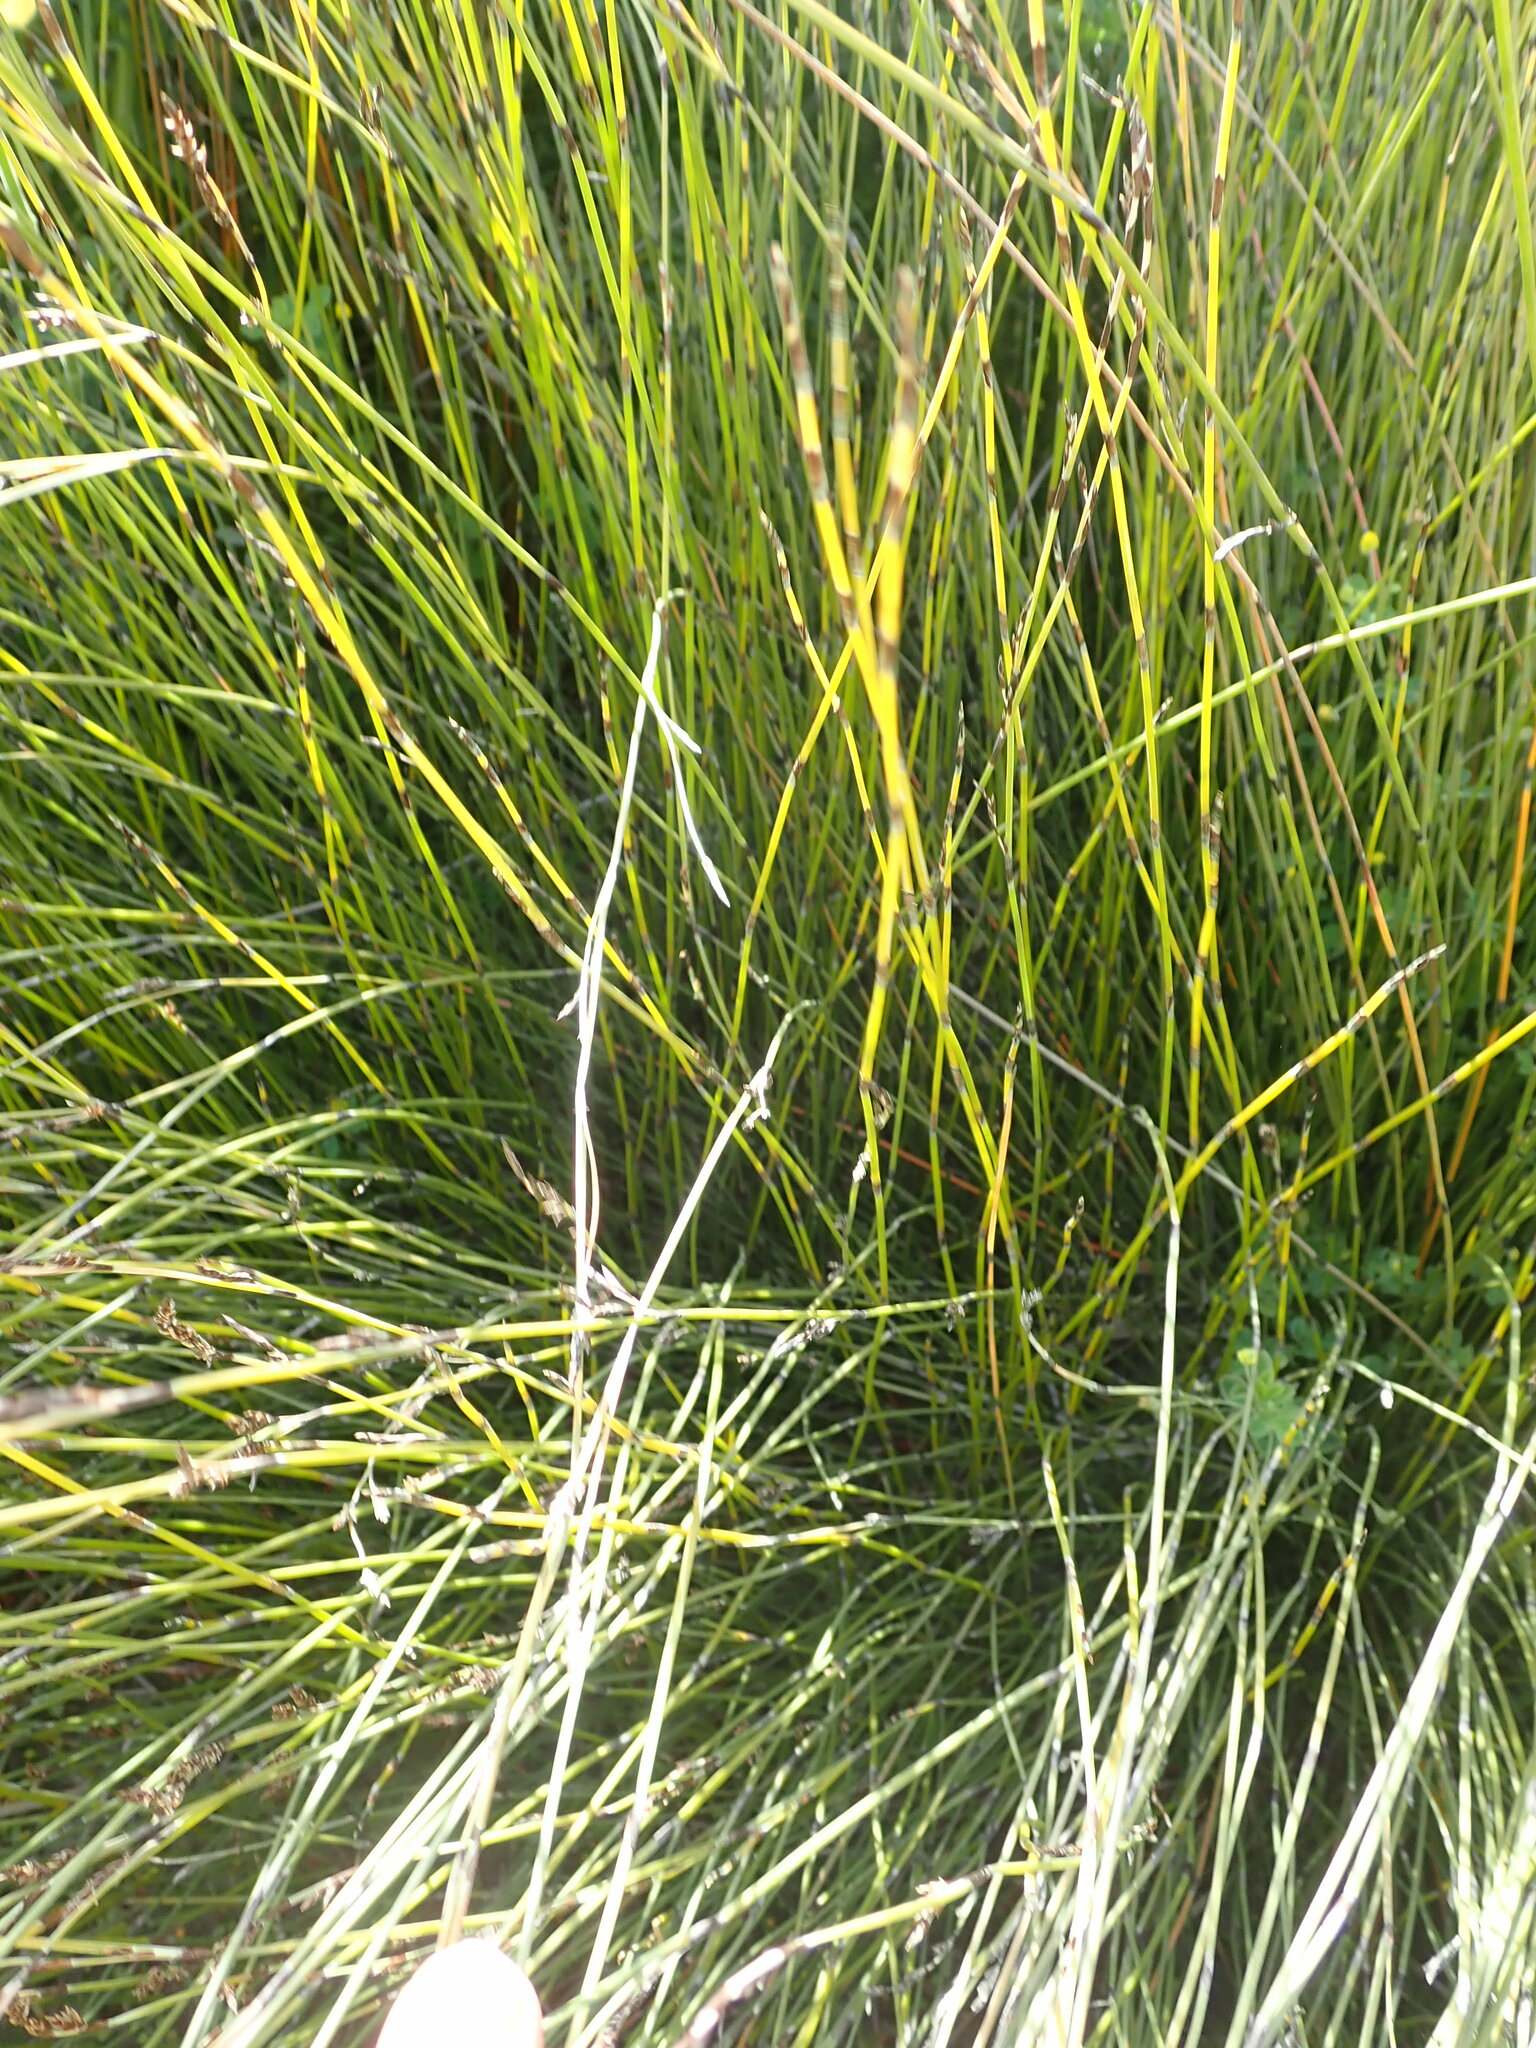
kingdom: Plantae
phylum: Tracheophyta
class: Liliopsida
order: Poales
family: Restionaceae
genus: Apodasmia
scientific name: Apodasmia similis
